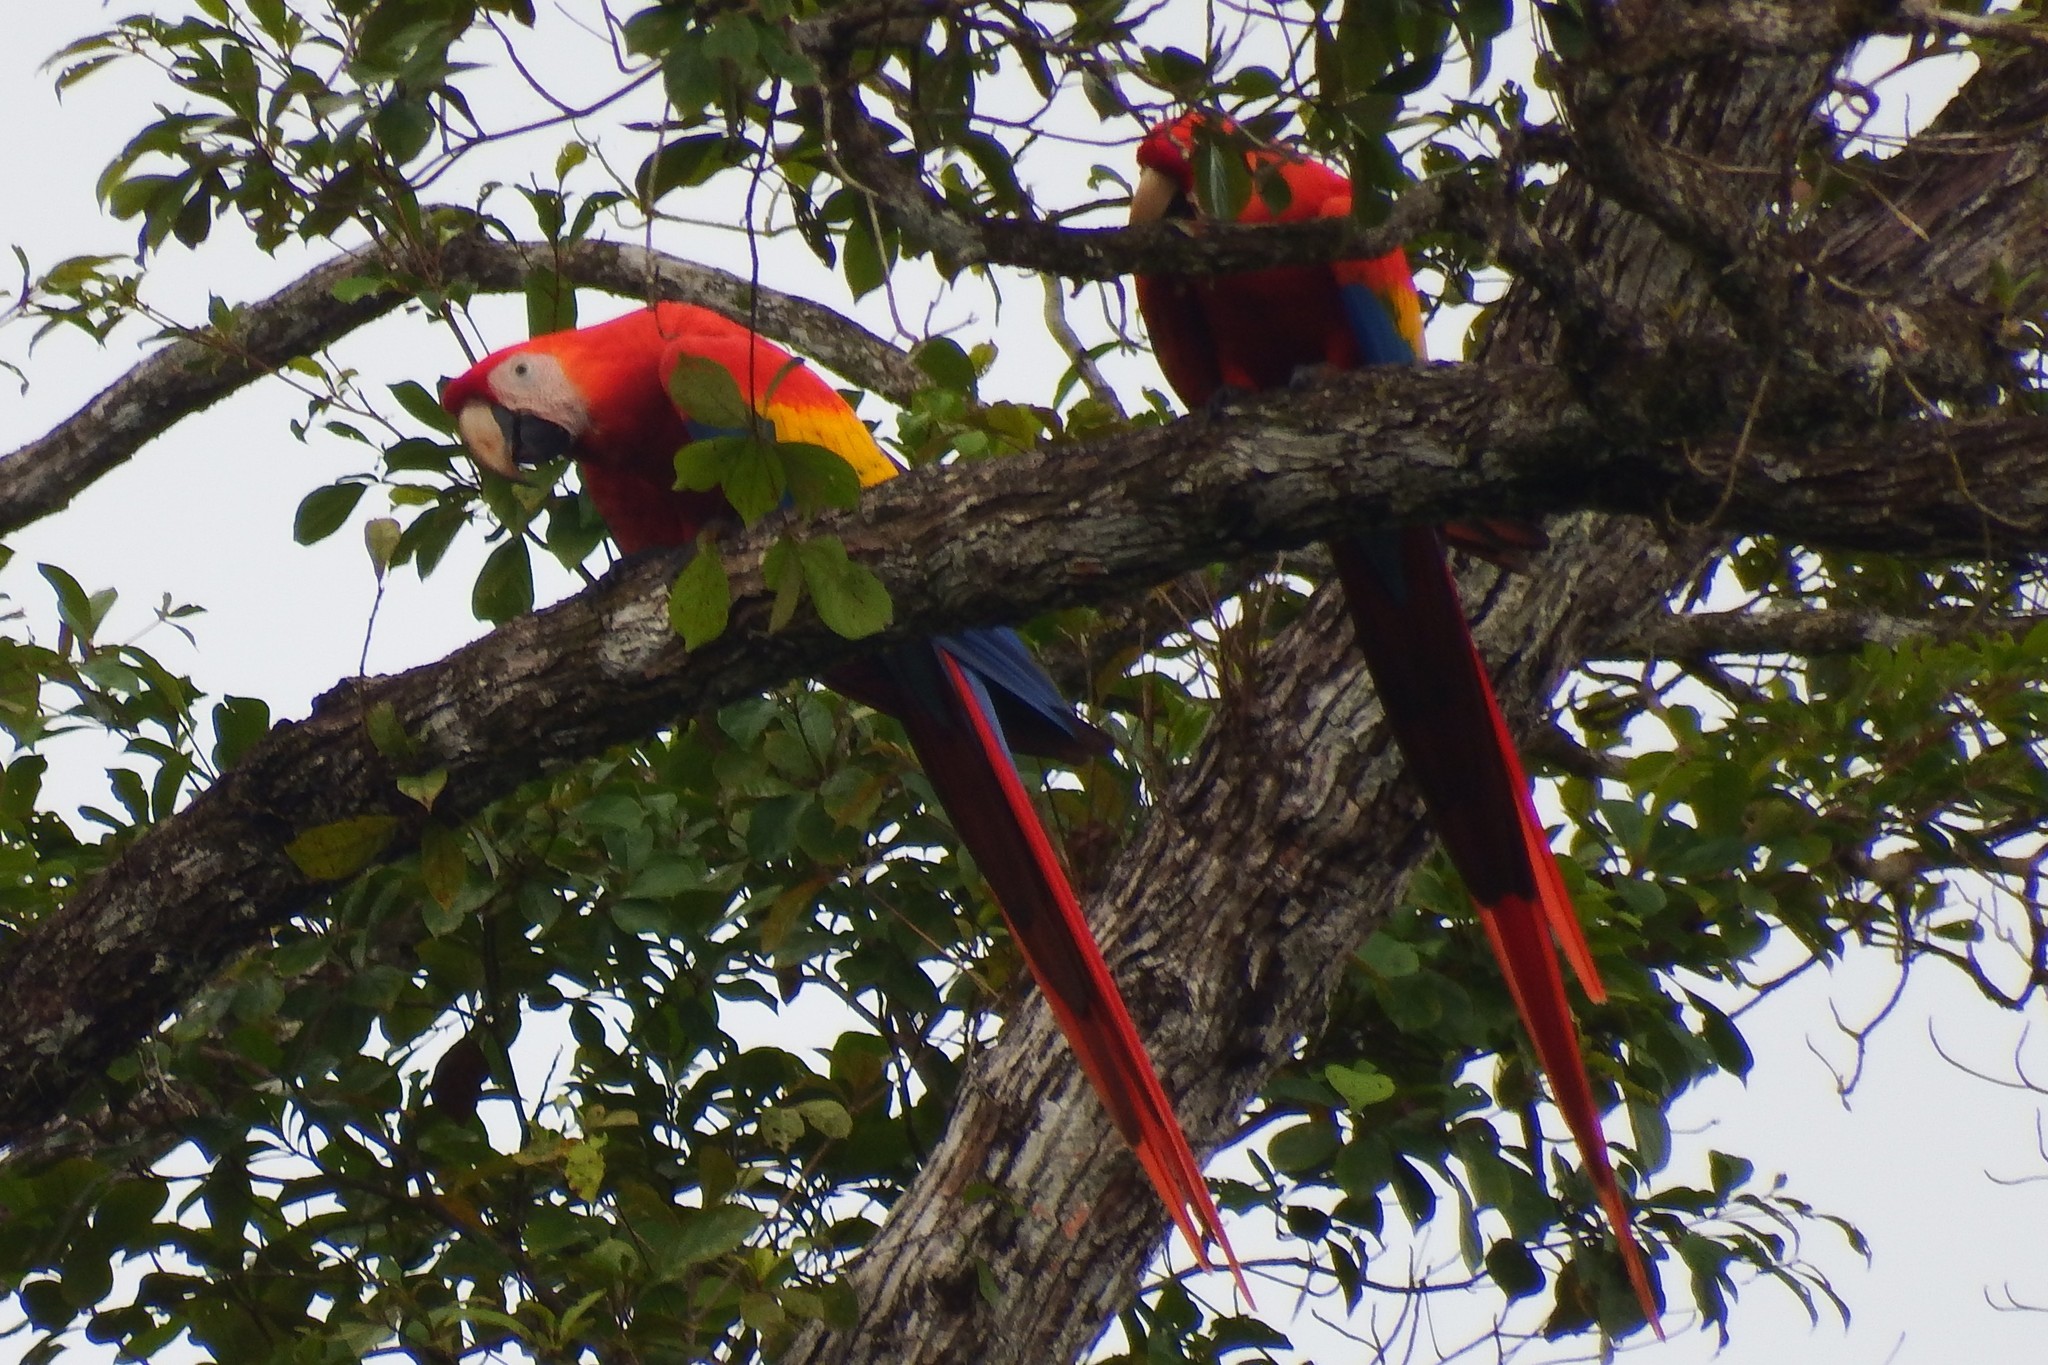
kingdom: Animalia
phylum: Chordata
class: Aves
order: Psittaciformes
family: Psittacidae
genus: Ara
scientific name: Ara macao
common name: Scarlet macaw
